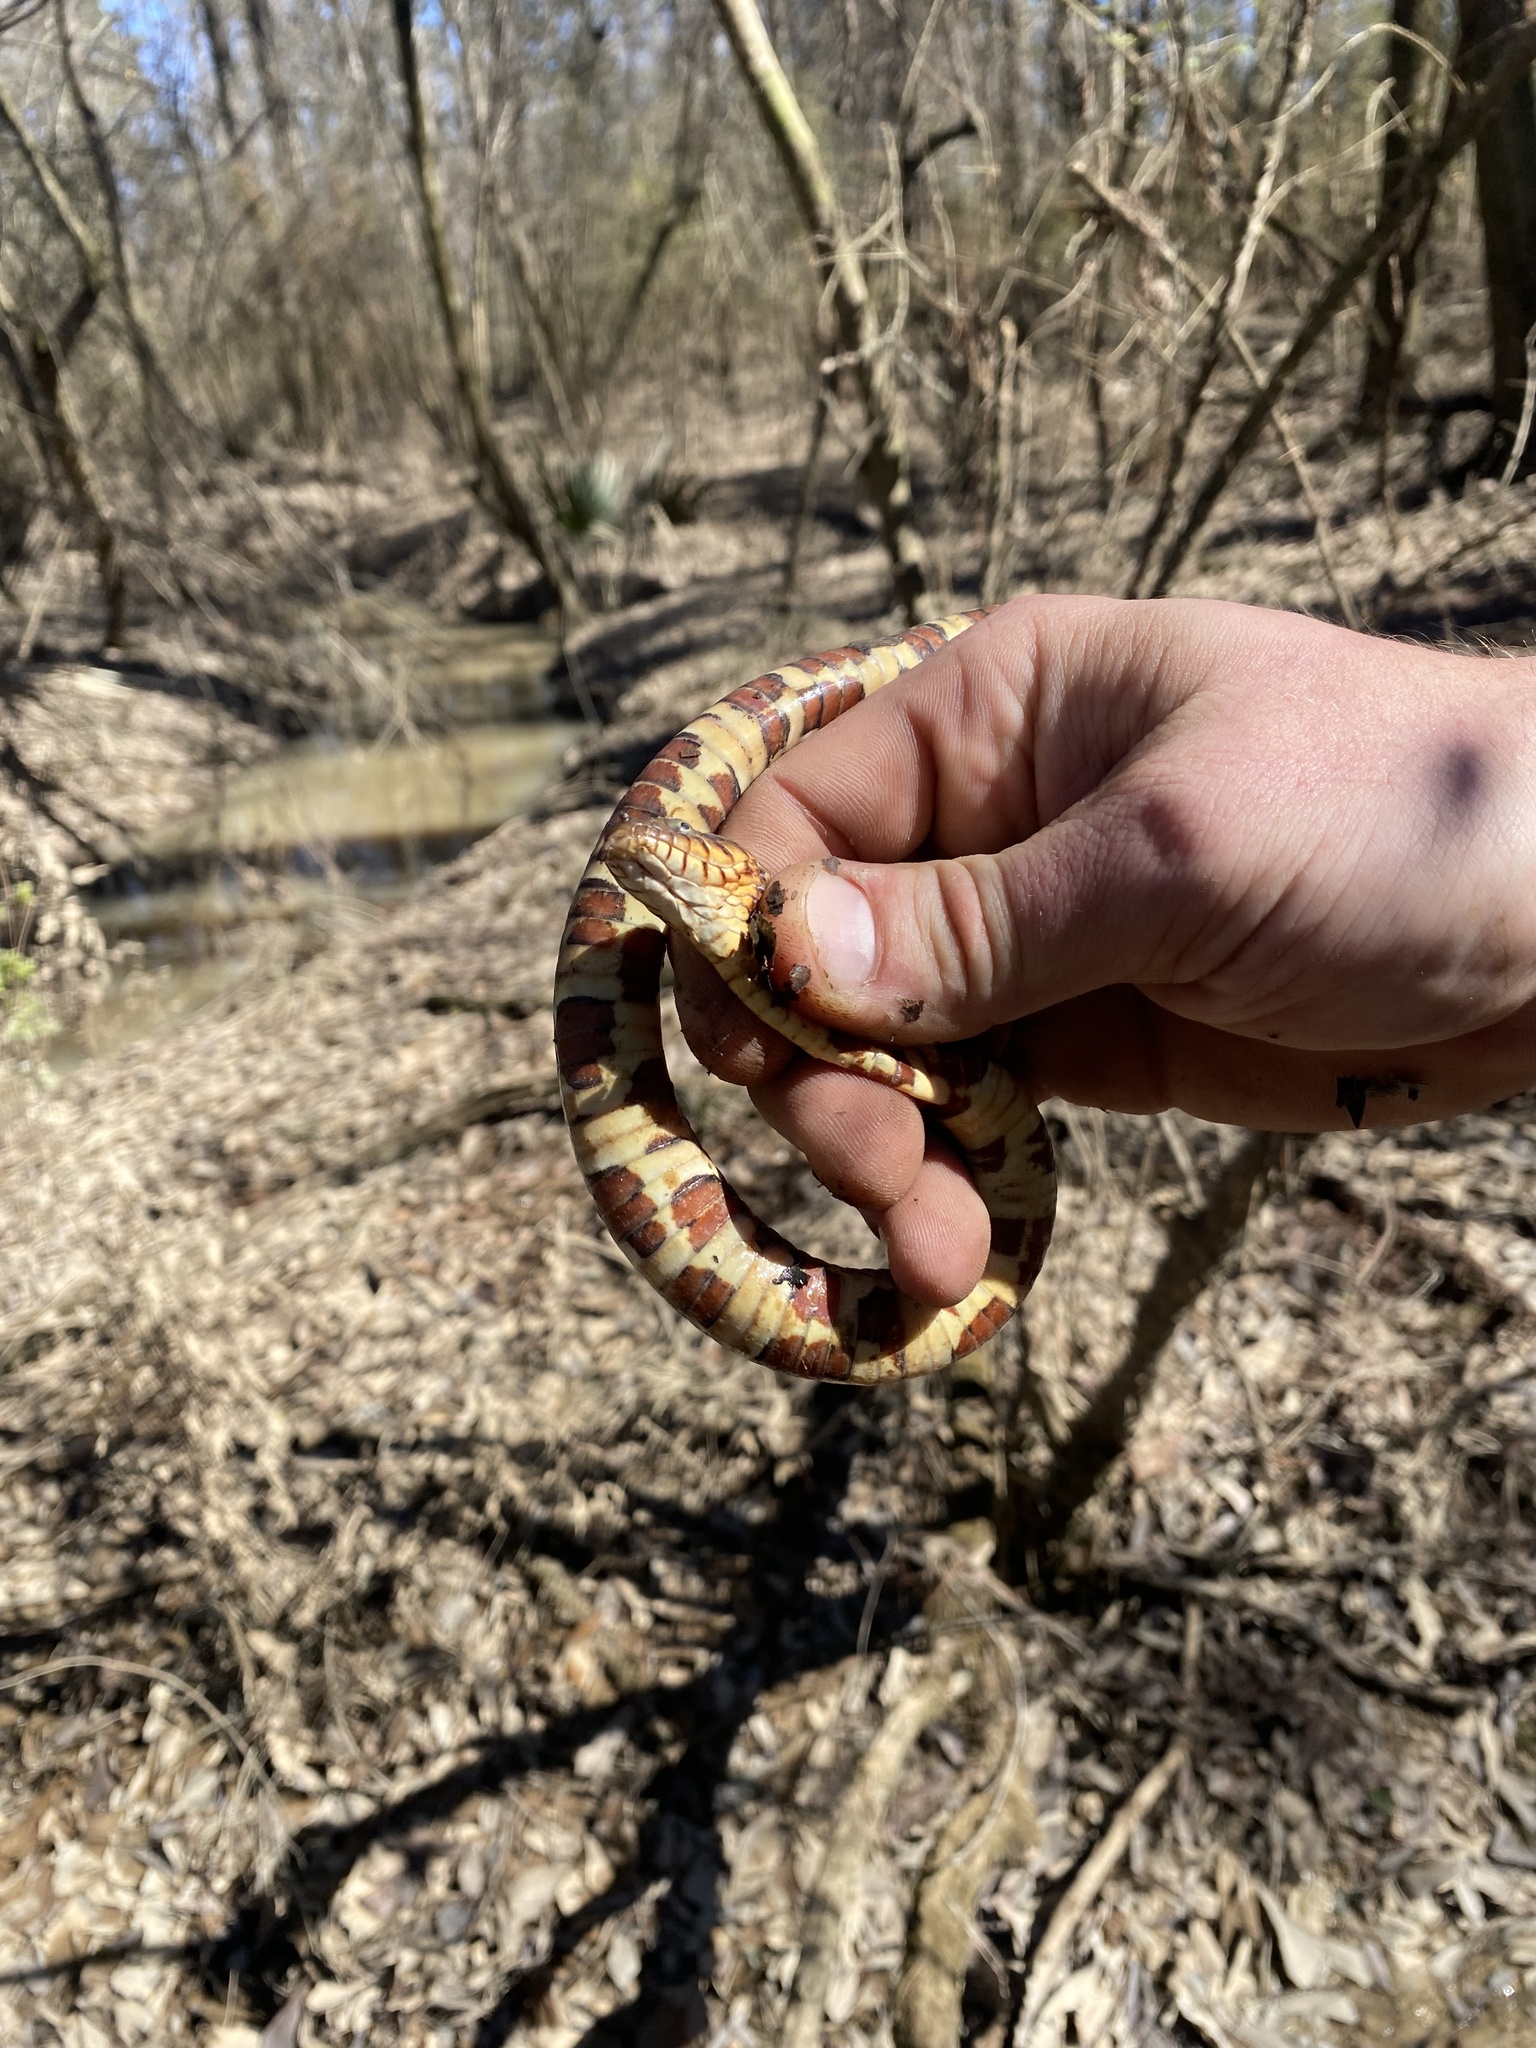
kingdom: Animalia
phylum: Chordata
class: Squamata
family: Colubridae
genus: Nerodia
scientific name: Nerodia fasciata
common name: Southern water snake
